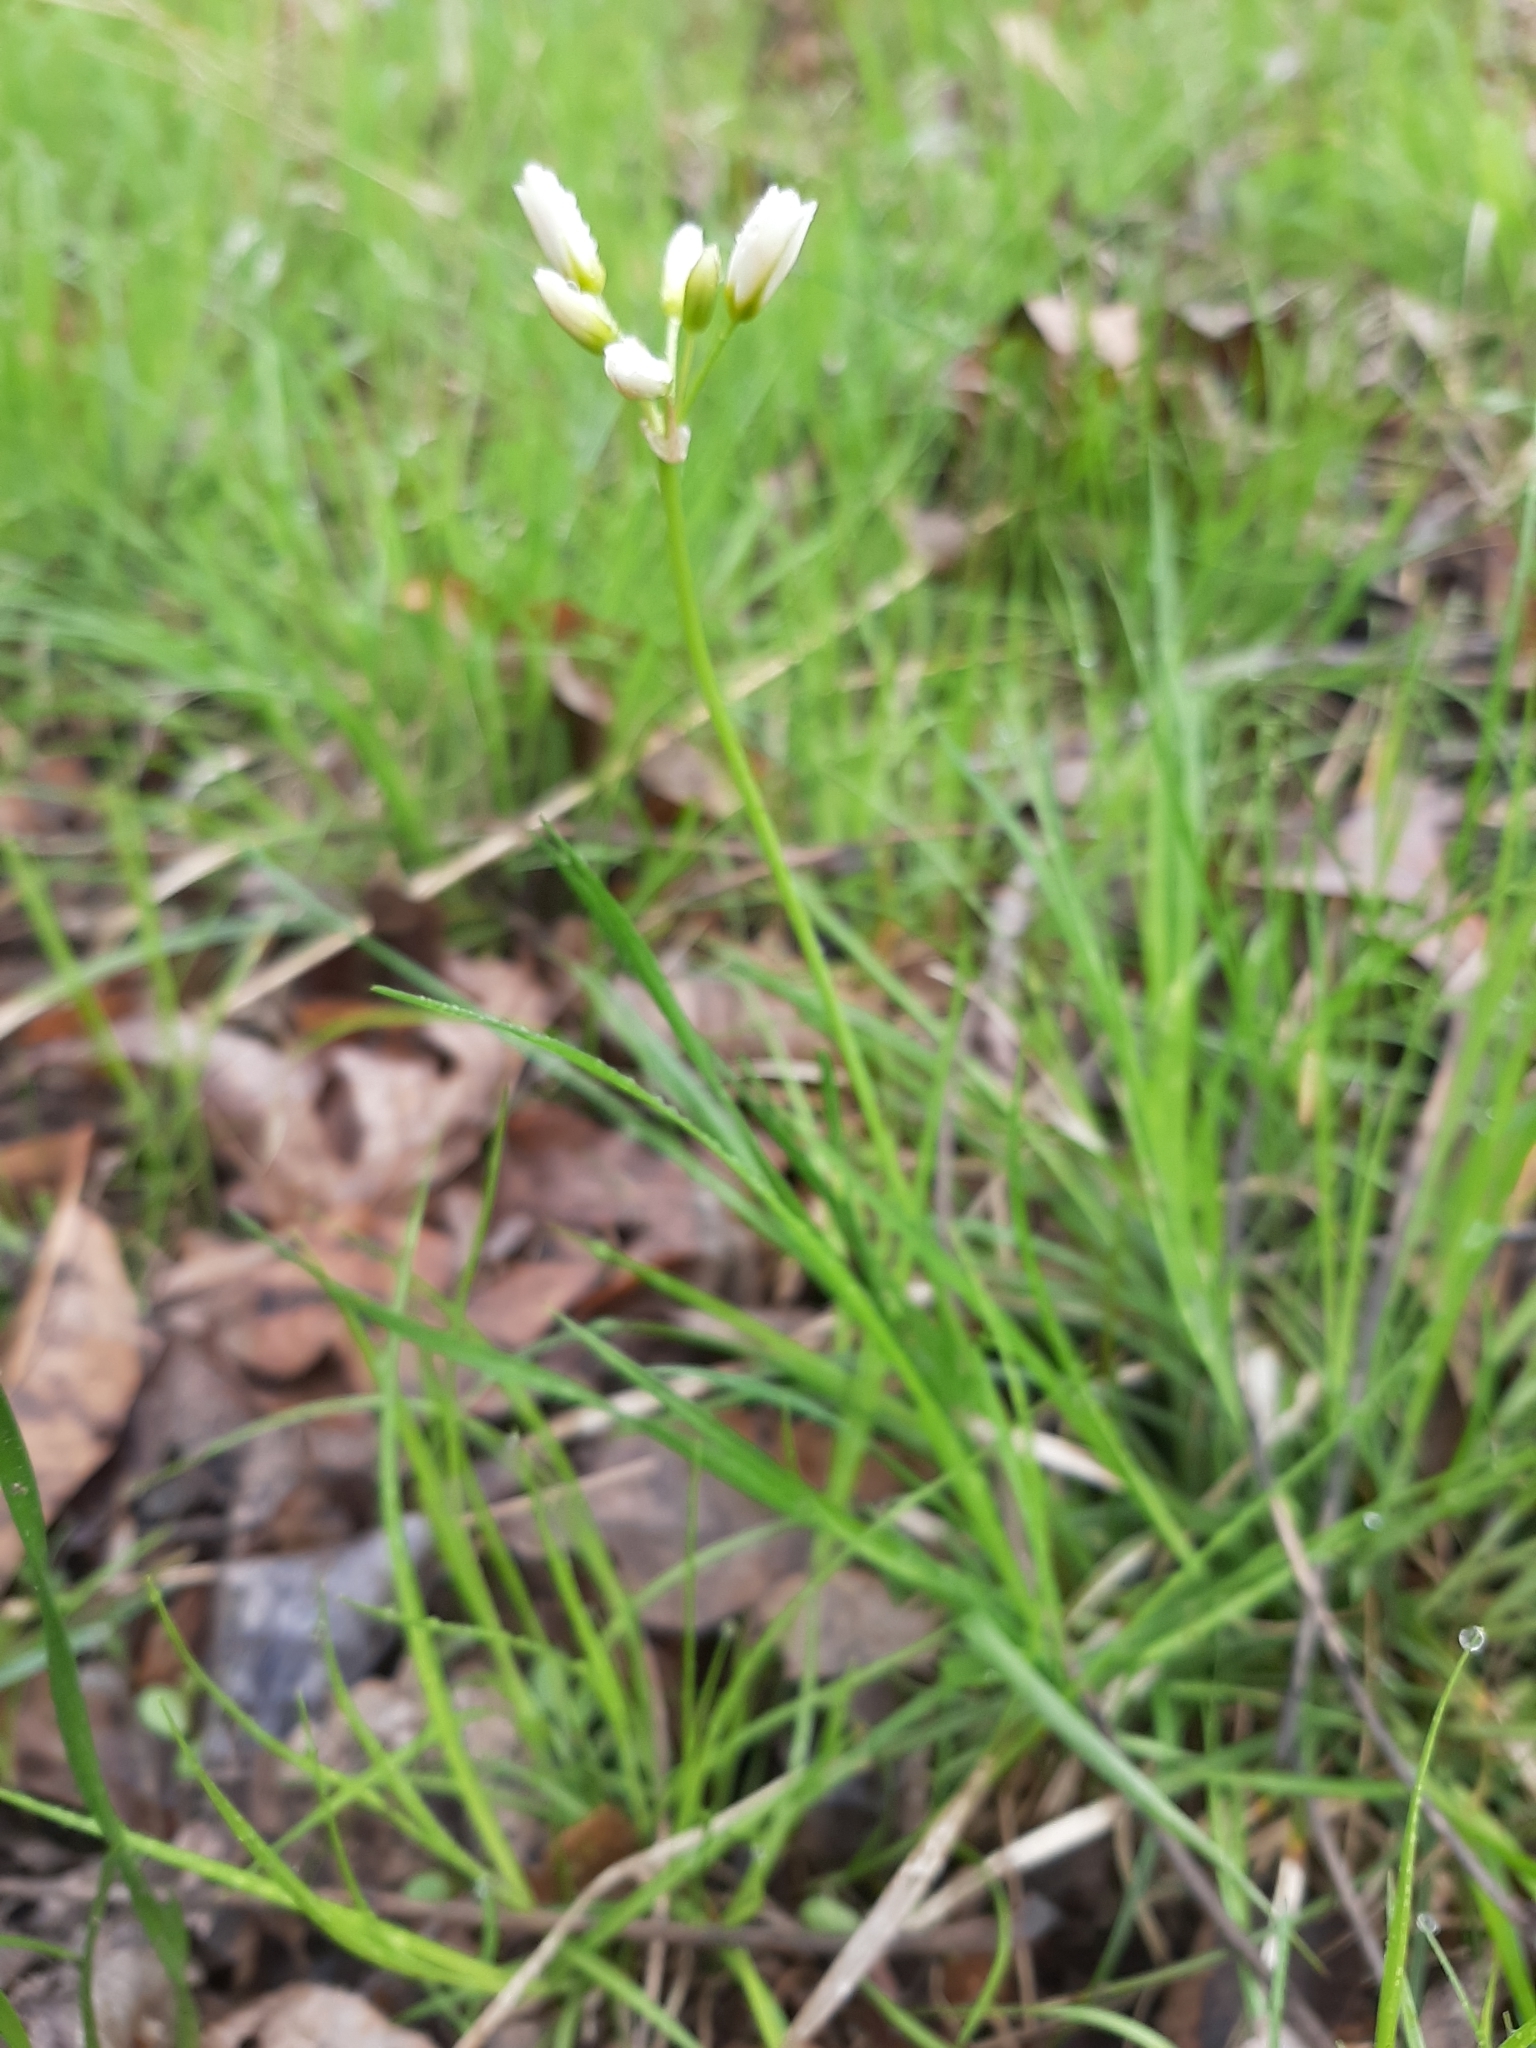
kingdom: Plantae
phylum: Tracheophyta
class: Liliopsida
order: Asparagales
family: Amaryllidaceae
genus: Nothoscordum
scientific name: Nothoscordum bivalve
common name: Crow-poison
